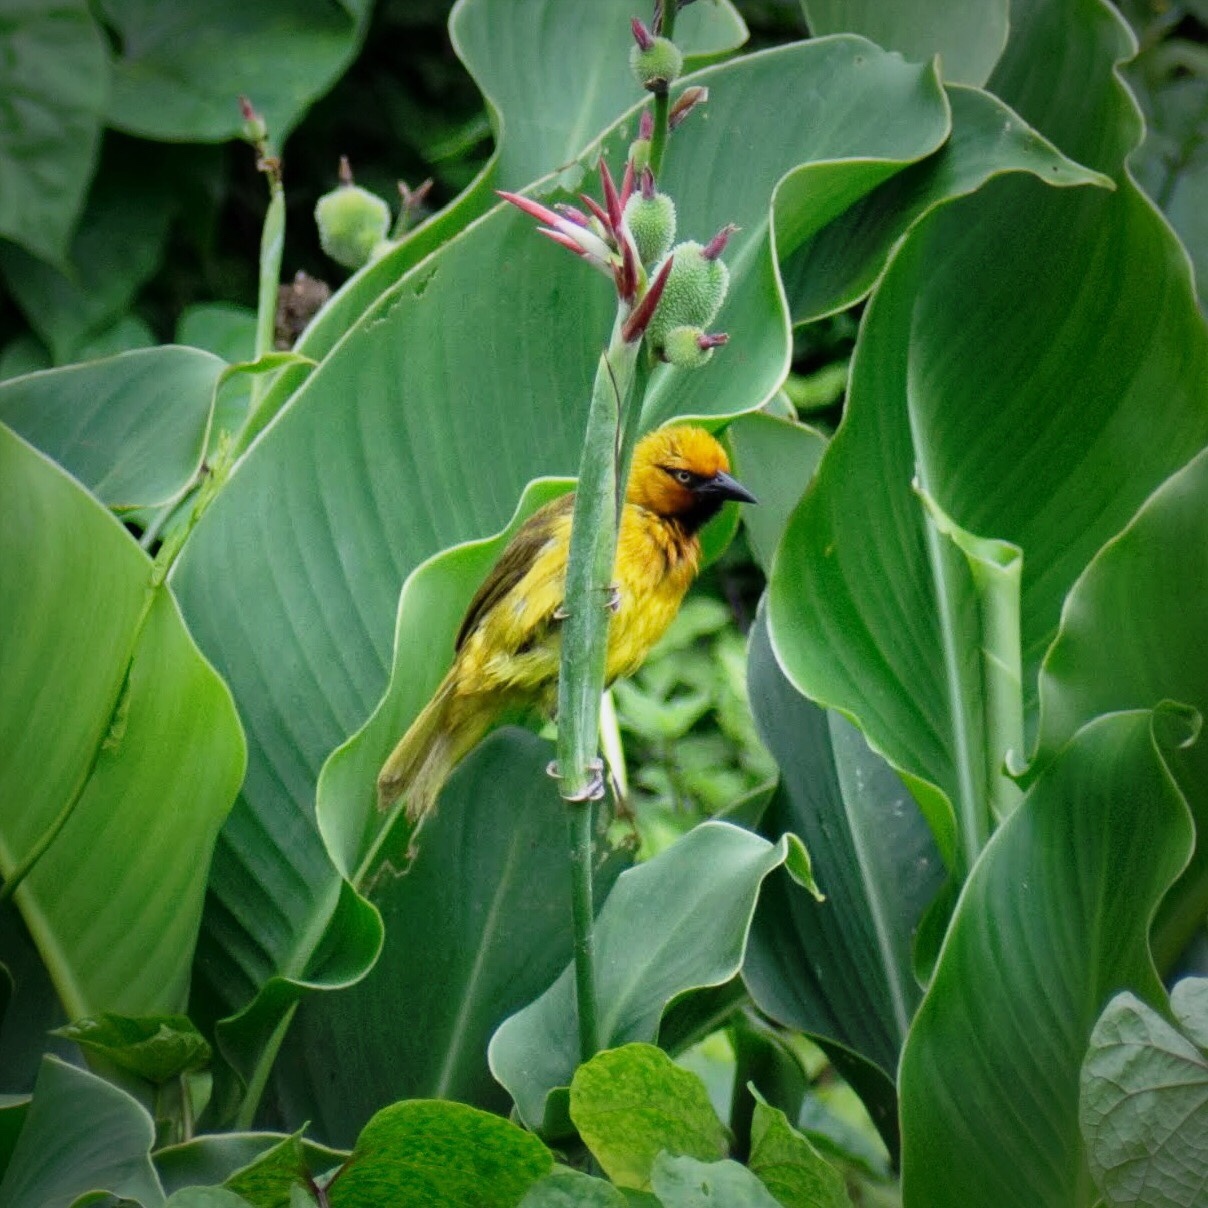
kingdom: Animalia
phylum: Chordata
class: Aves
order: Passeriformes
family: Ploceidae
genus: Ploceus
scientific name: Ploceus ocularis
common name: Spectacled weaver
